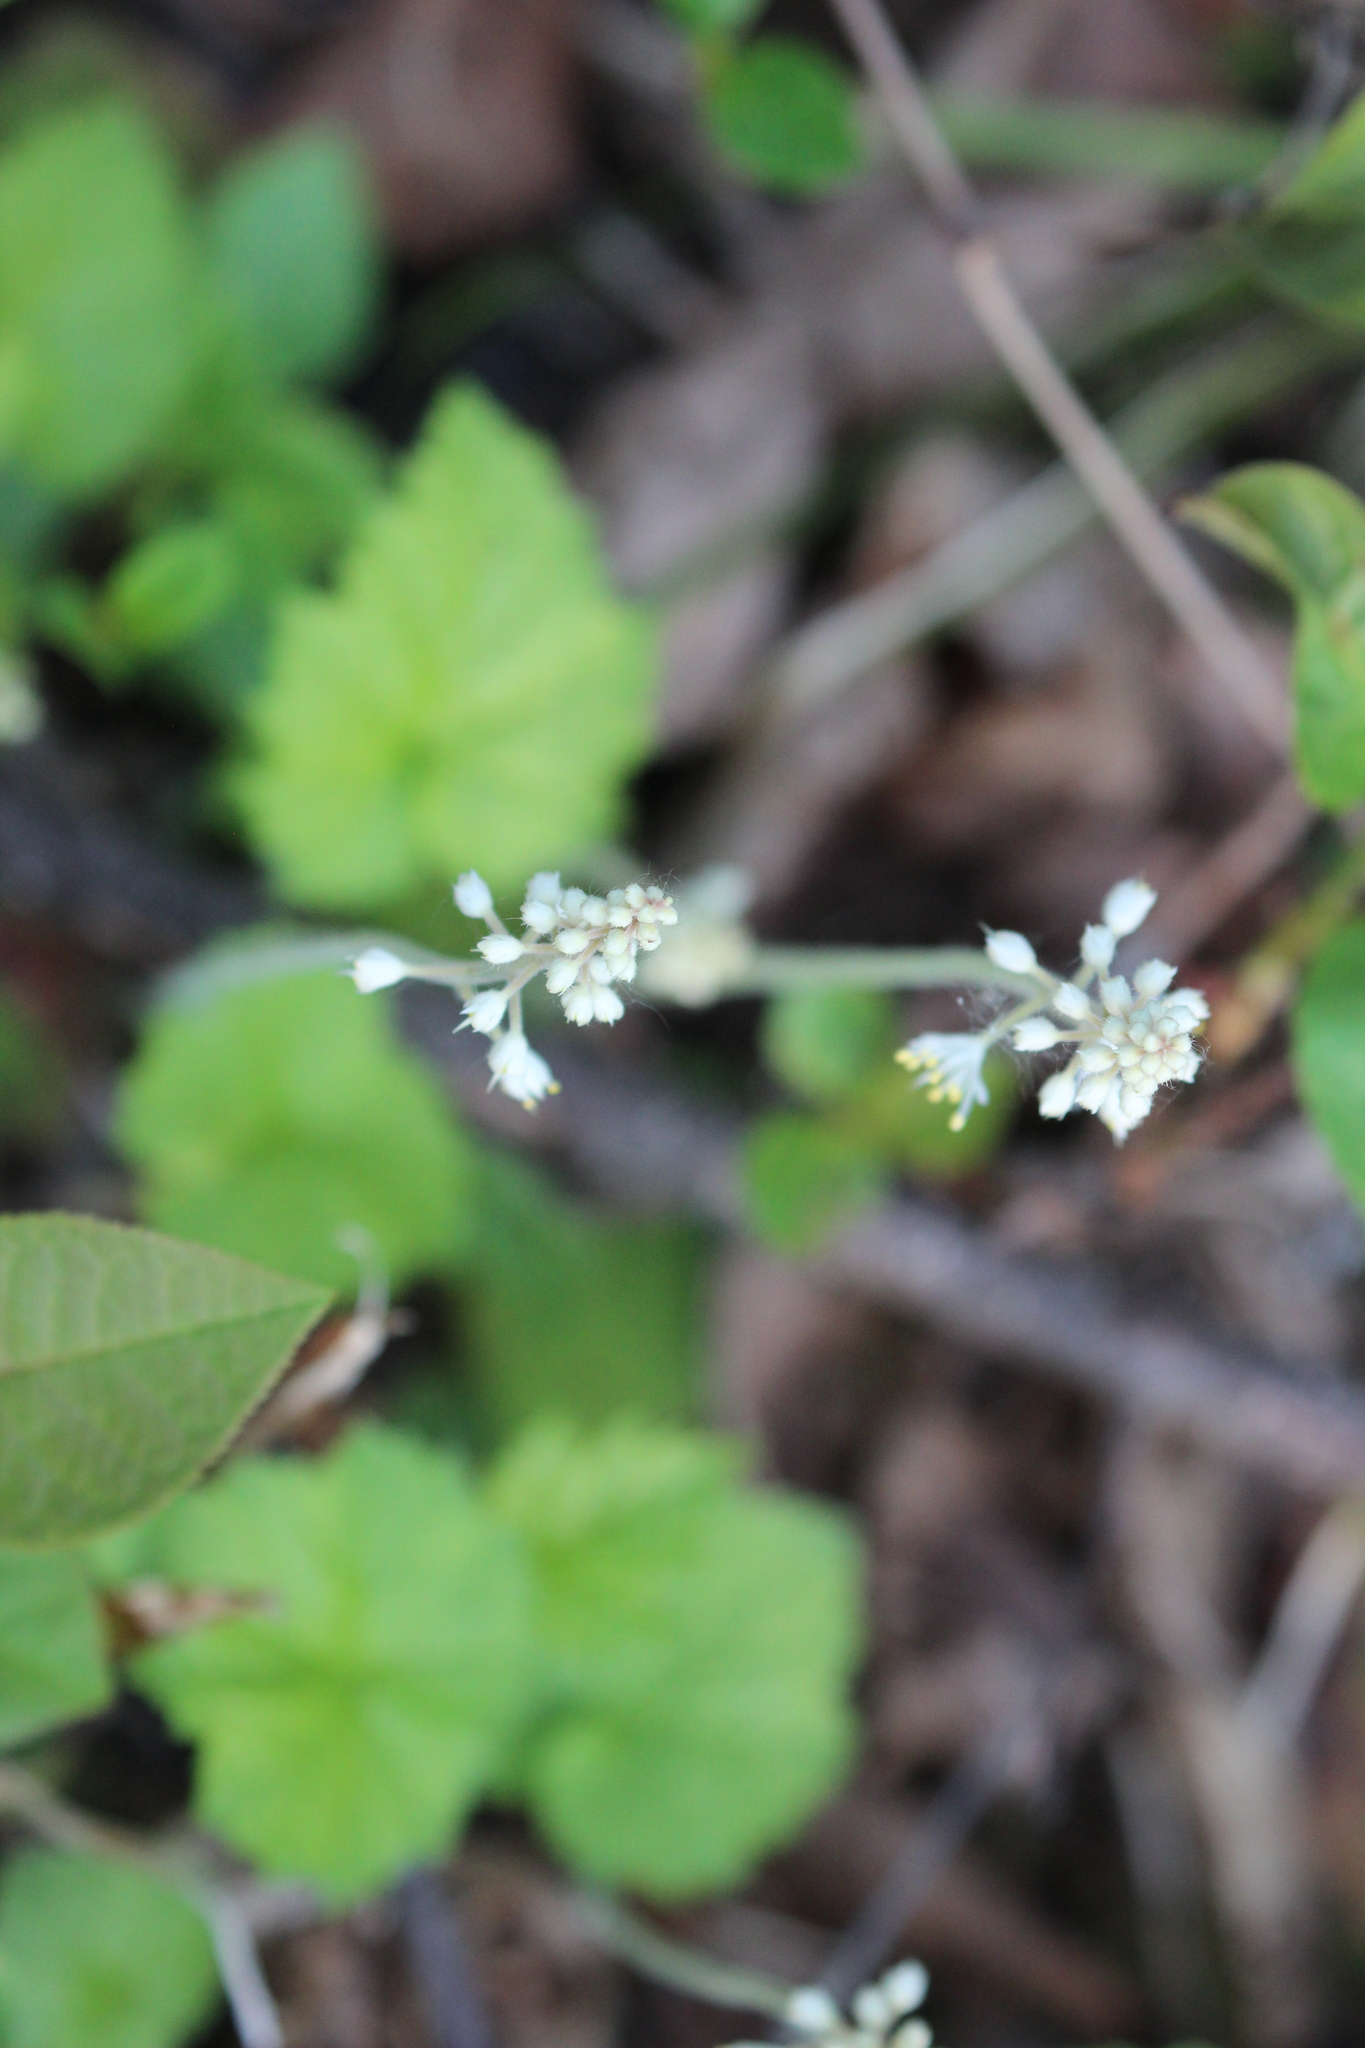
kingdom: Plantae
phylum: Tracheophyta
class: Magnoliopsida
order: Saxifragales
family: Saxifragaceae
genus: Tiarella
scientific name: Tiarella stolonifera
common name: Stoloniferous foamflower
